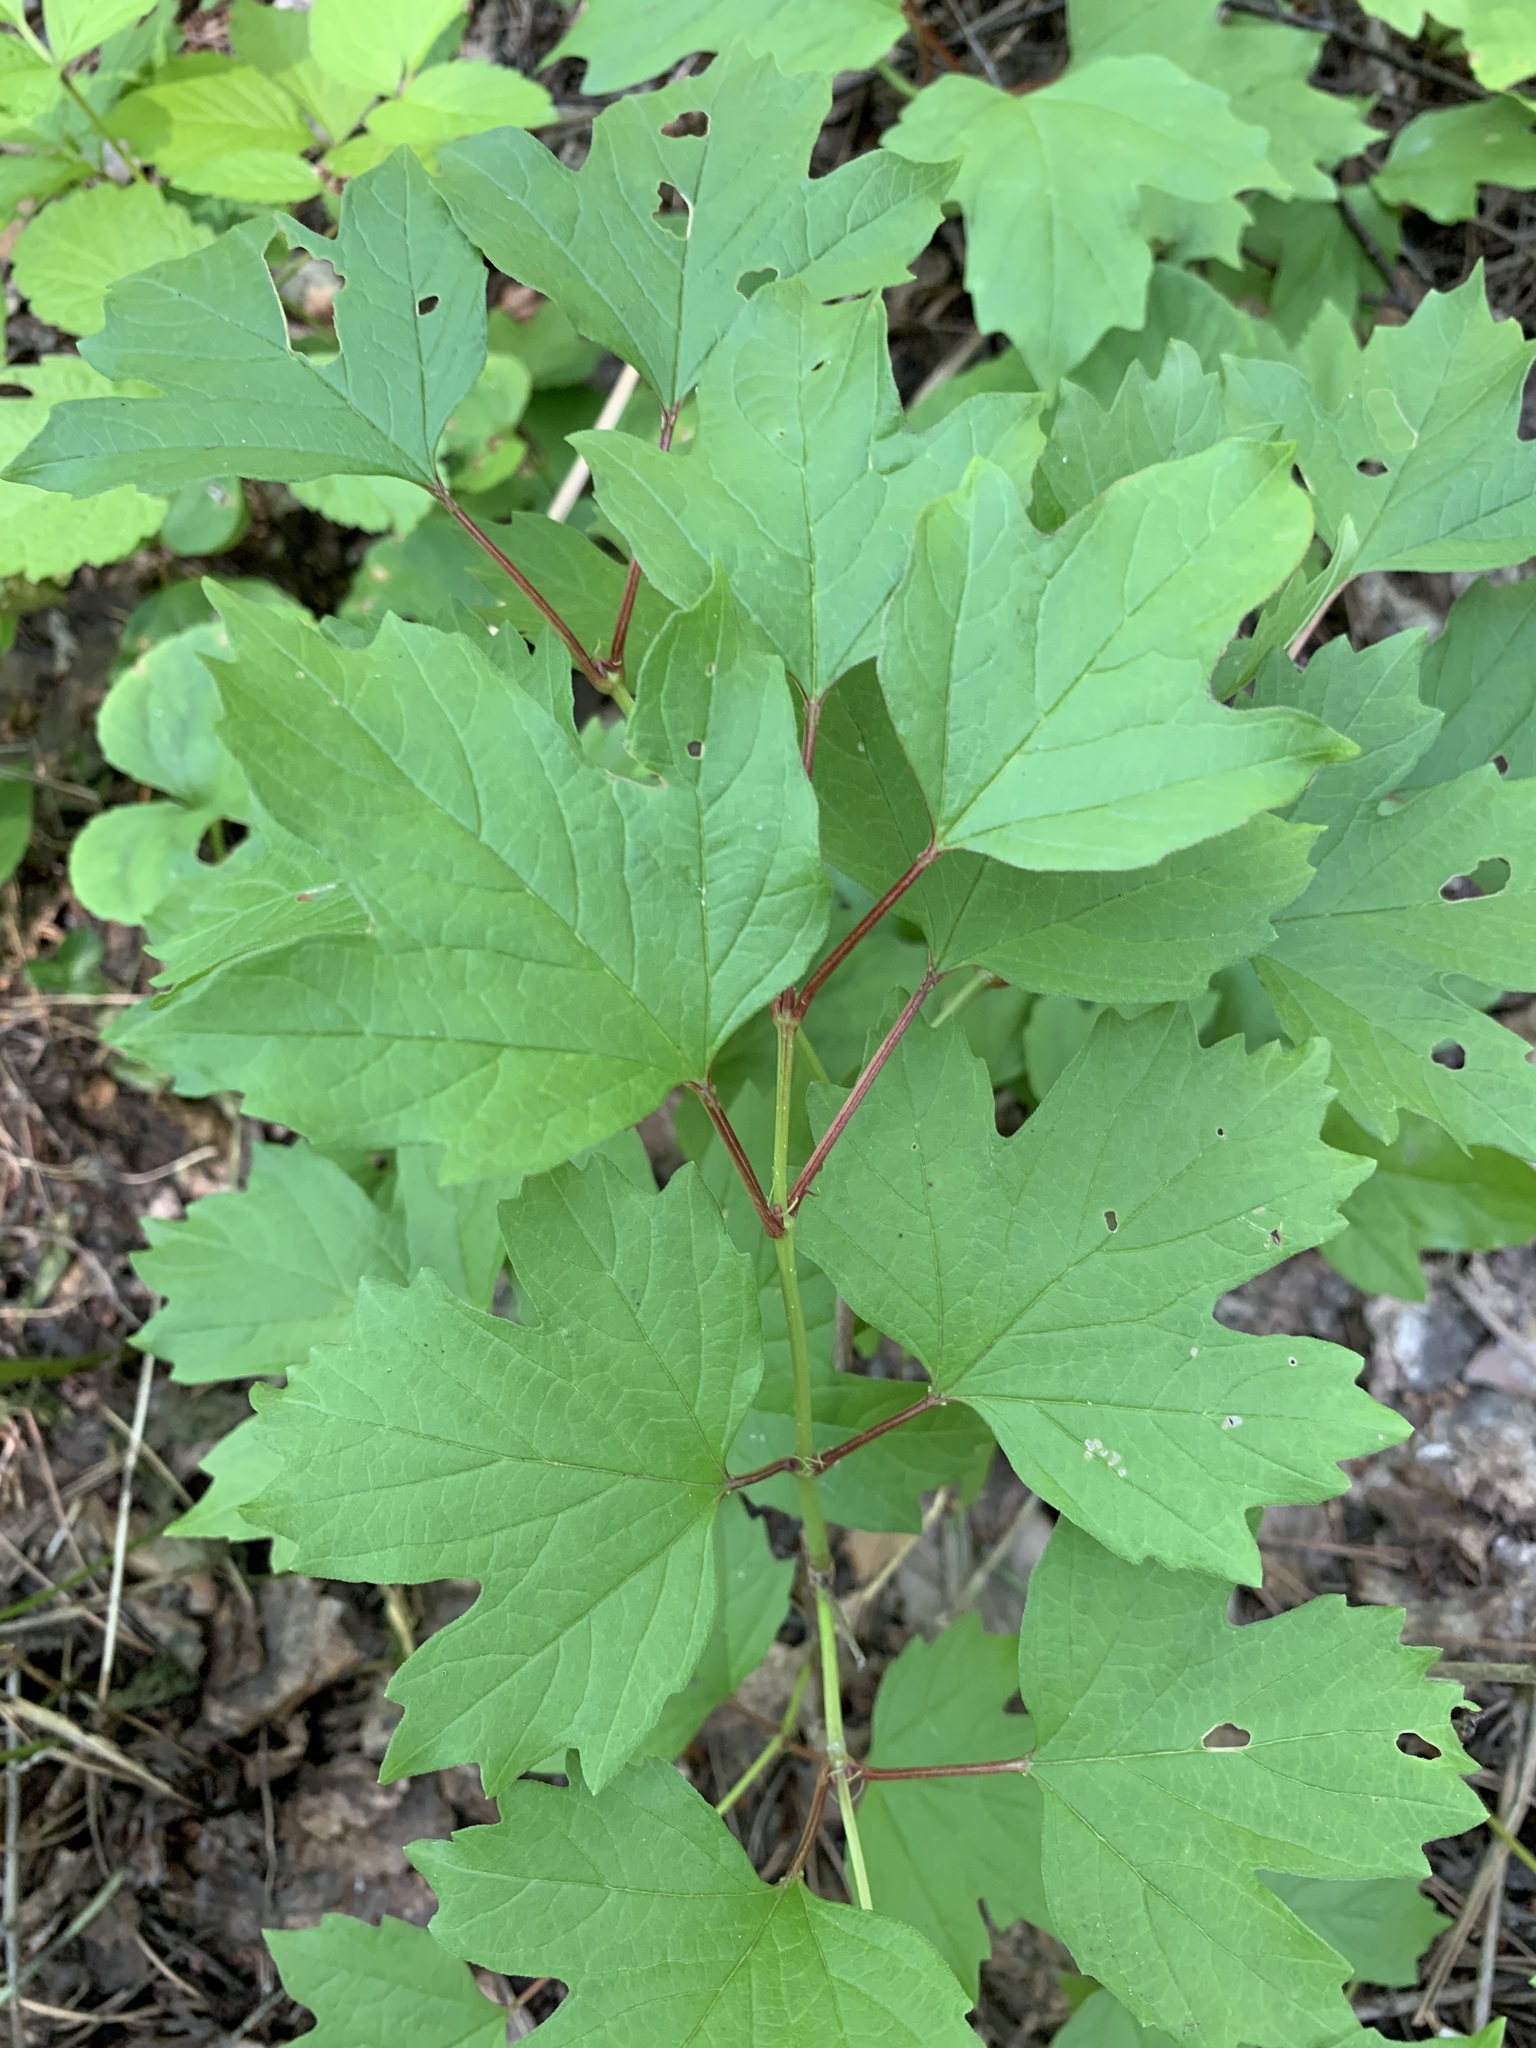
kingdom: Plantae
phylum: Tracheophyta
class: Magnoliopsida
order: Dipsacales
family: Viburnaceae
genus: Viburnum
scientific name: Viburnum opulus
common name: Guelder-rose
